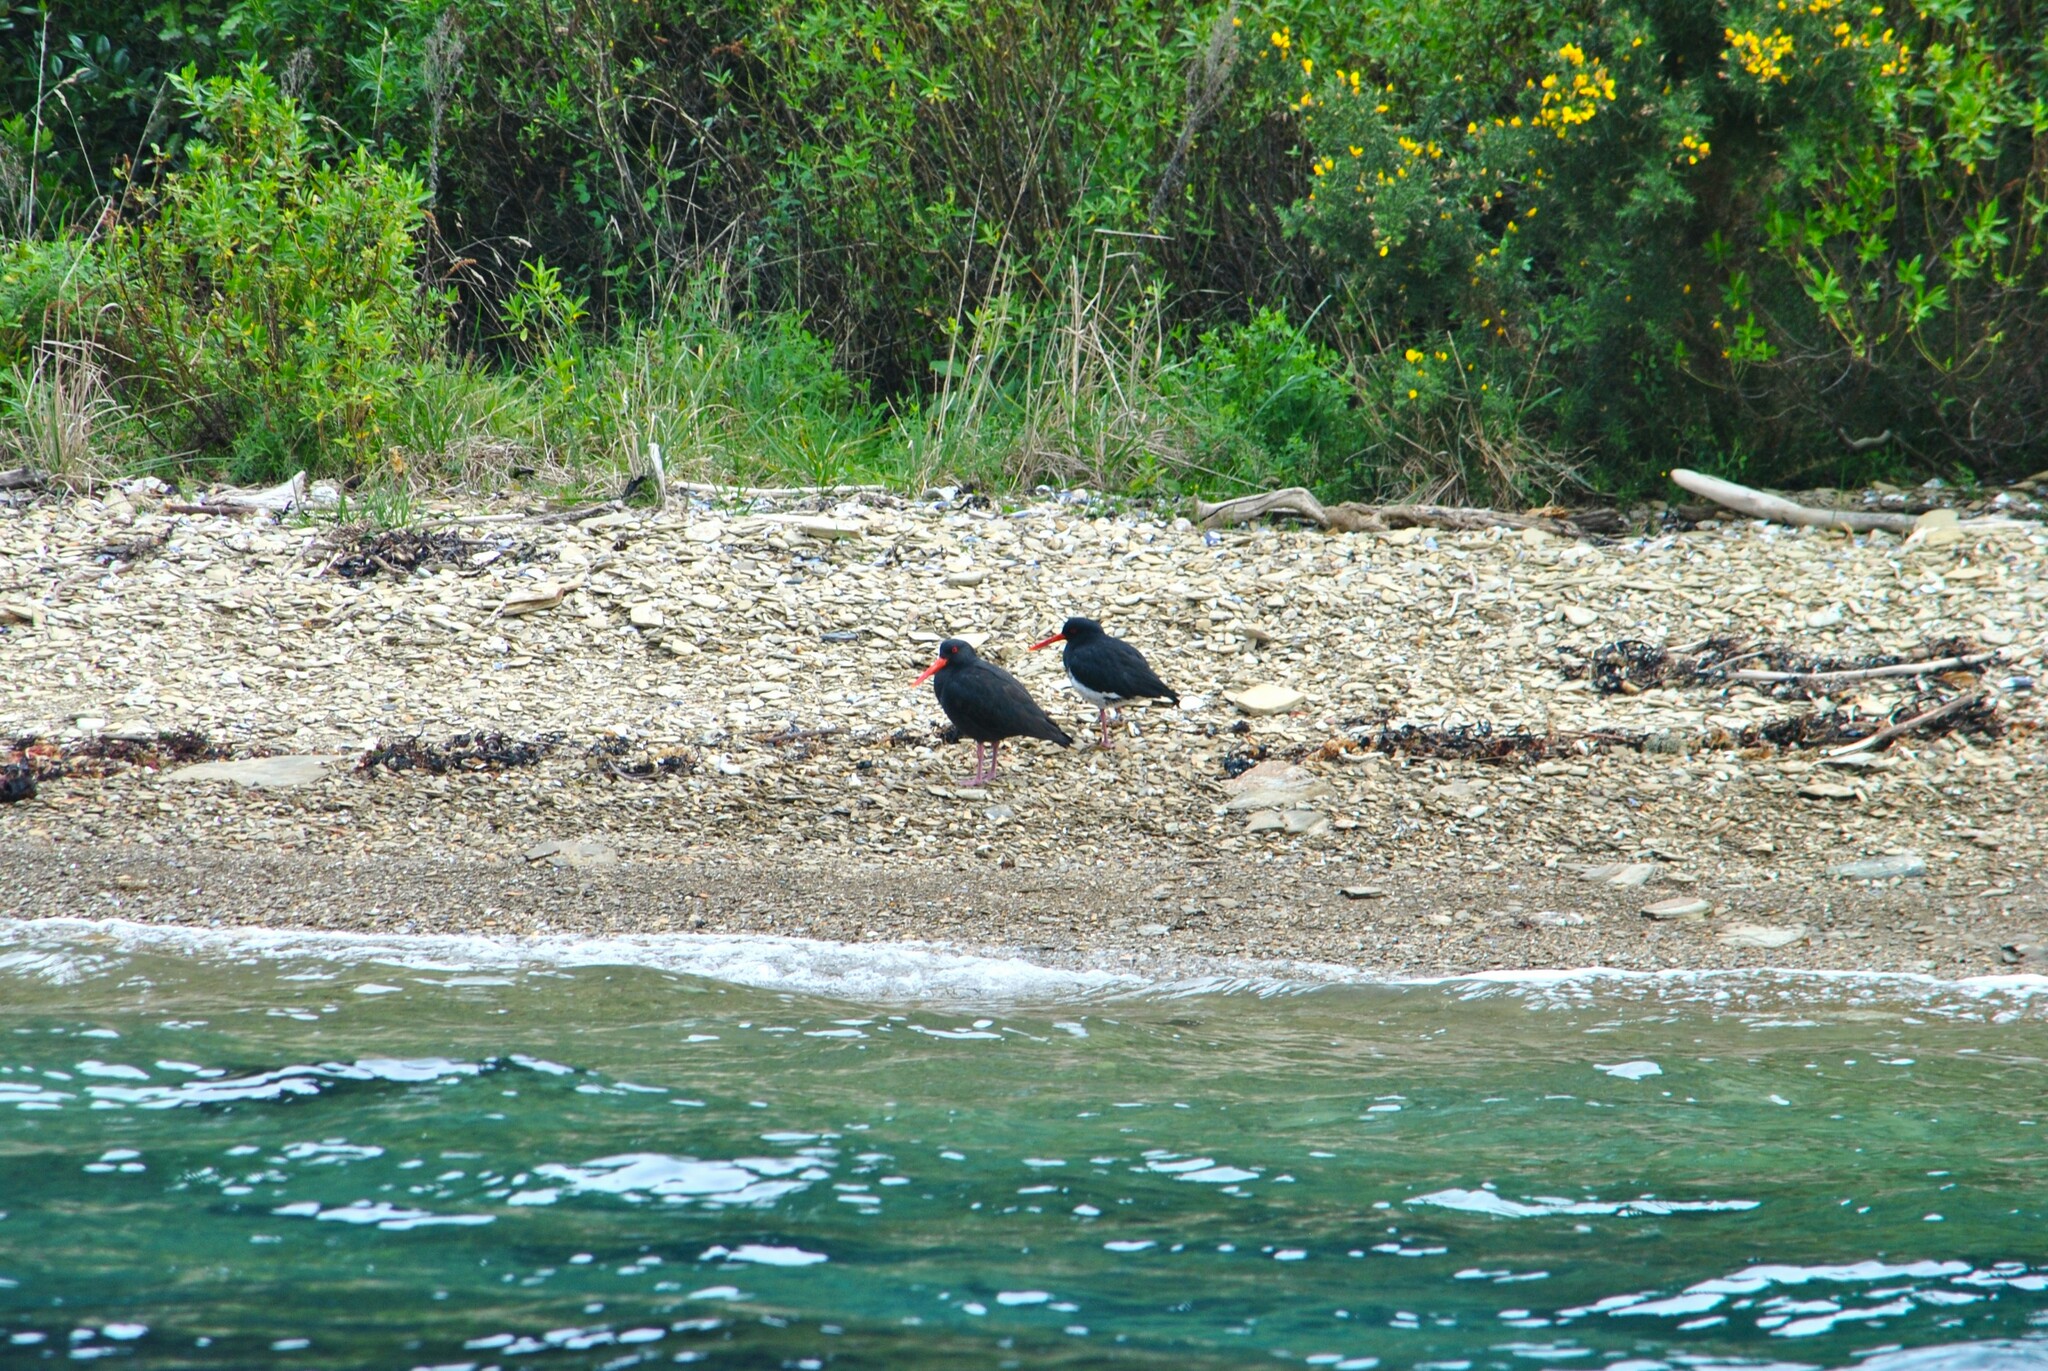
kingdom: Animalia
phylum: Chordata
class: Aves
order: Charadriiformes
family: Haematopodidae
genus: Haematopus
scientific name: Haematopus unicolor
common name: Variable oystercatcher
